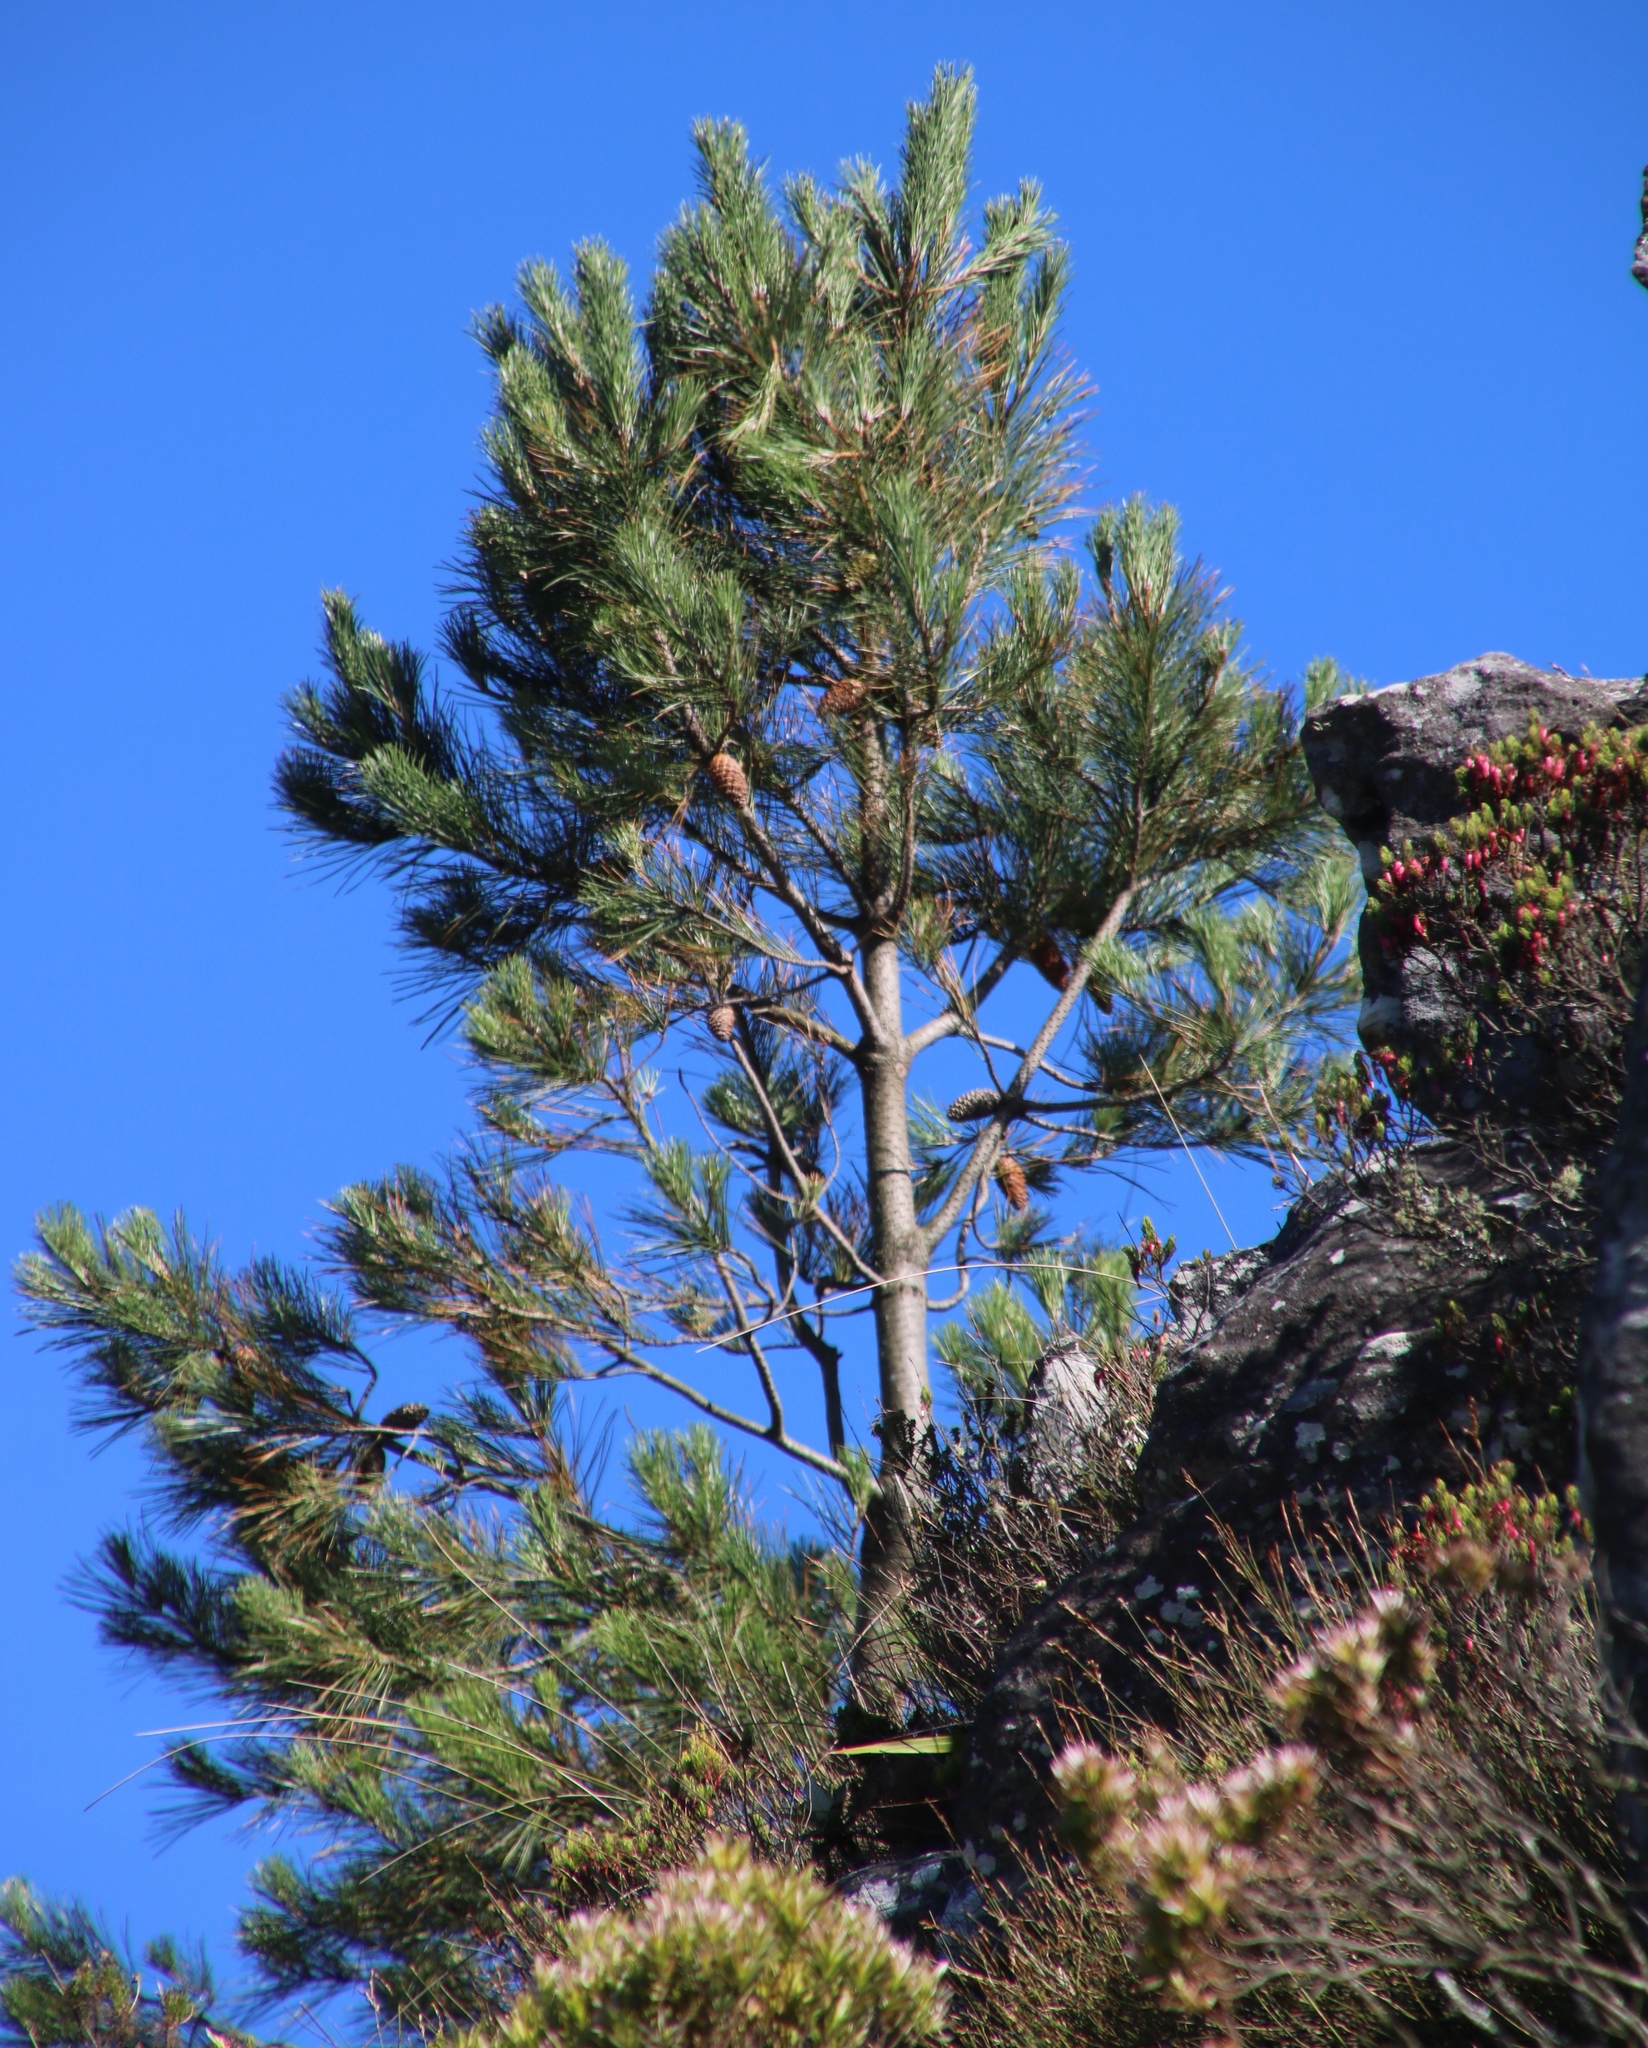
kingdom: Plantae
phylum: Tracheophyta
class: Pinopsida
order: Pinales
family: Pinaceae
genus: Pinus
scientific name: Pinus pinaster
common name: Maritime pine
